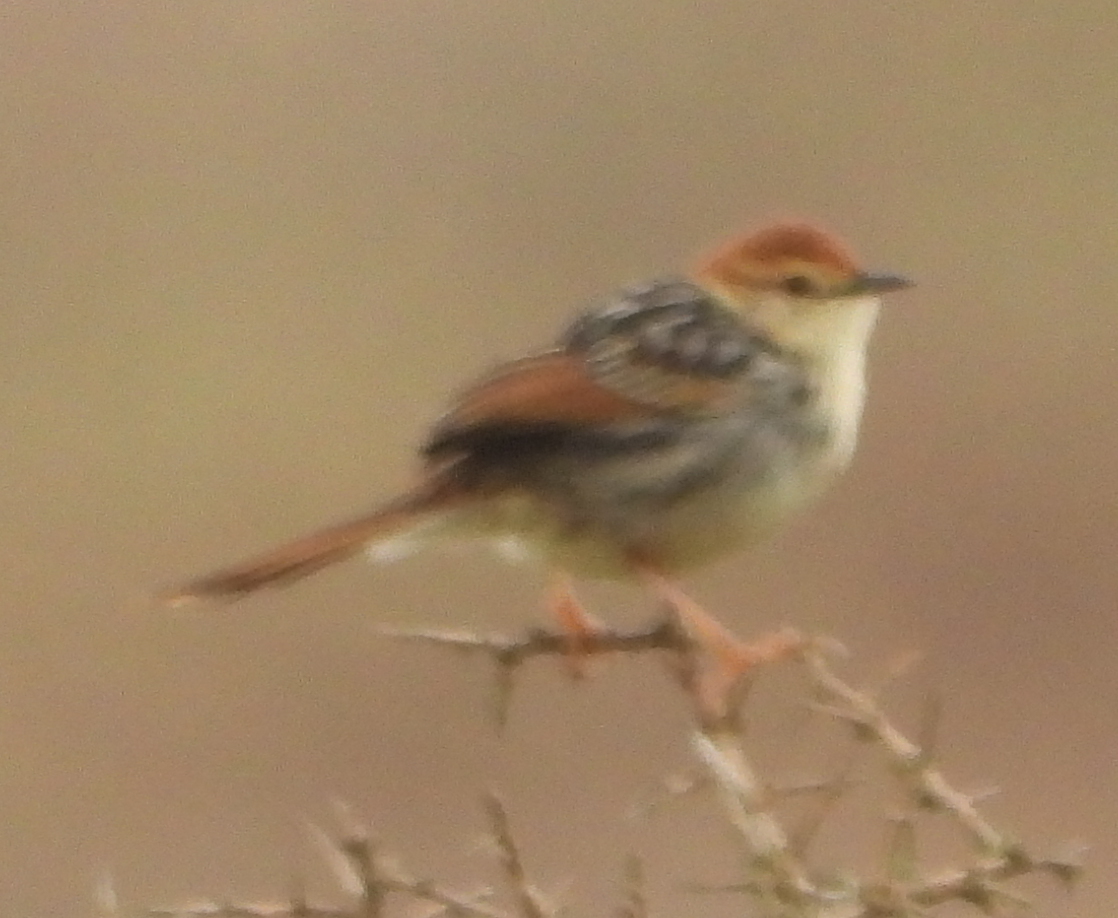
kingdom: Animalia
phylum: Chordata
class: Aves
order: Passeriformes
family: Cisticolidae
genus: Cisticola
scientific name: Cisticola tinniens
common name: Levaillant's cisticola
